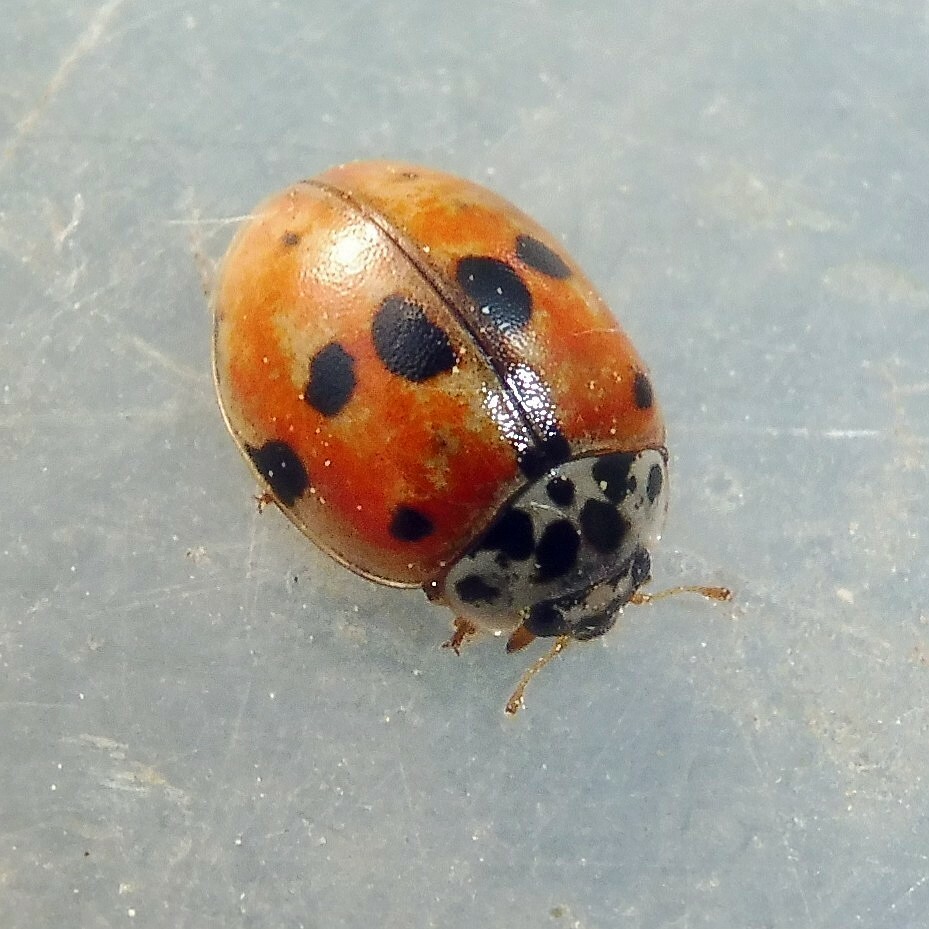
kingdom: Animalia
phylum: Arthropoda
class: Insecta
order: Coleoptera
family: Coccinellidae
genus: Adalia
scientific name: Adalia decempunctata
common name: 10-spot ladybird
